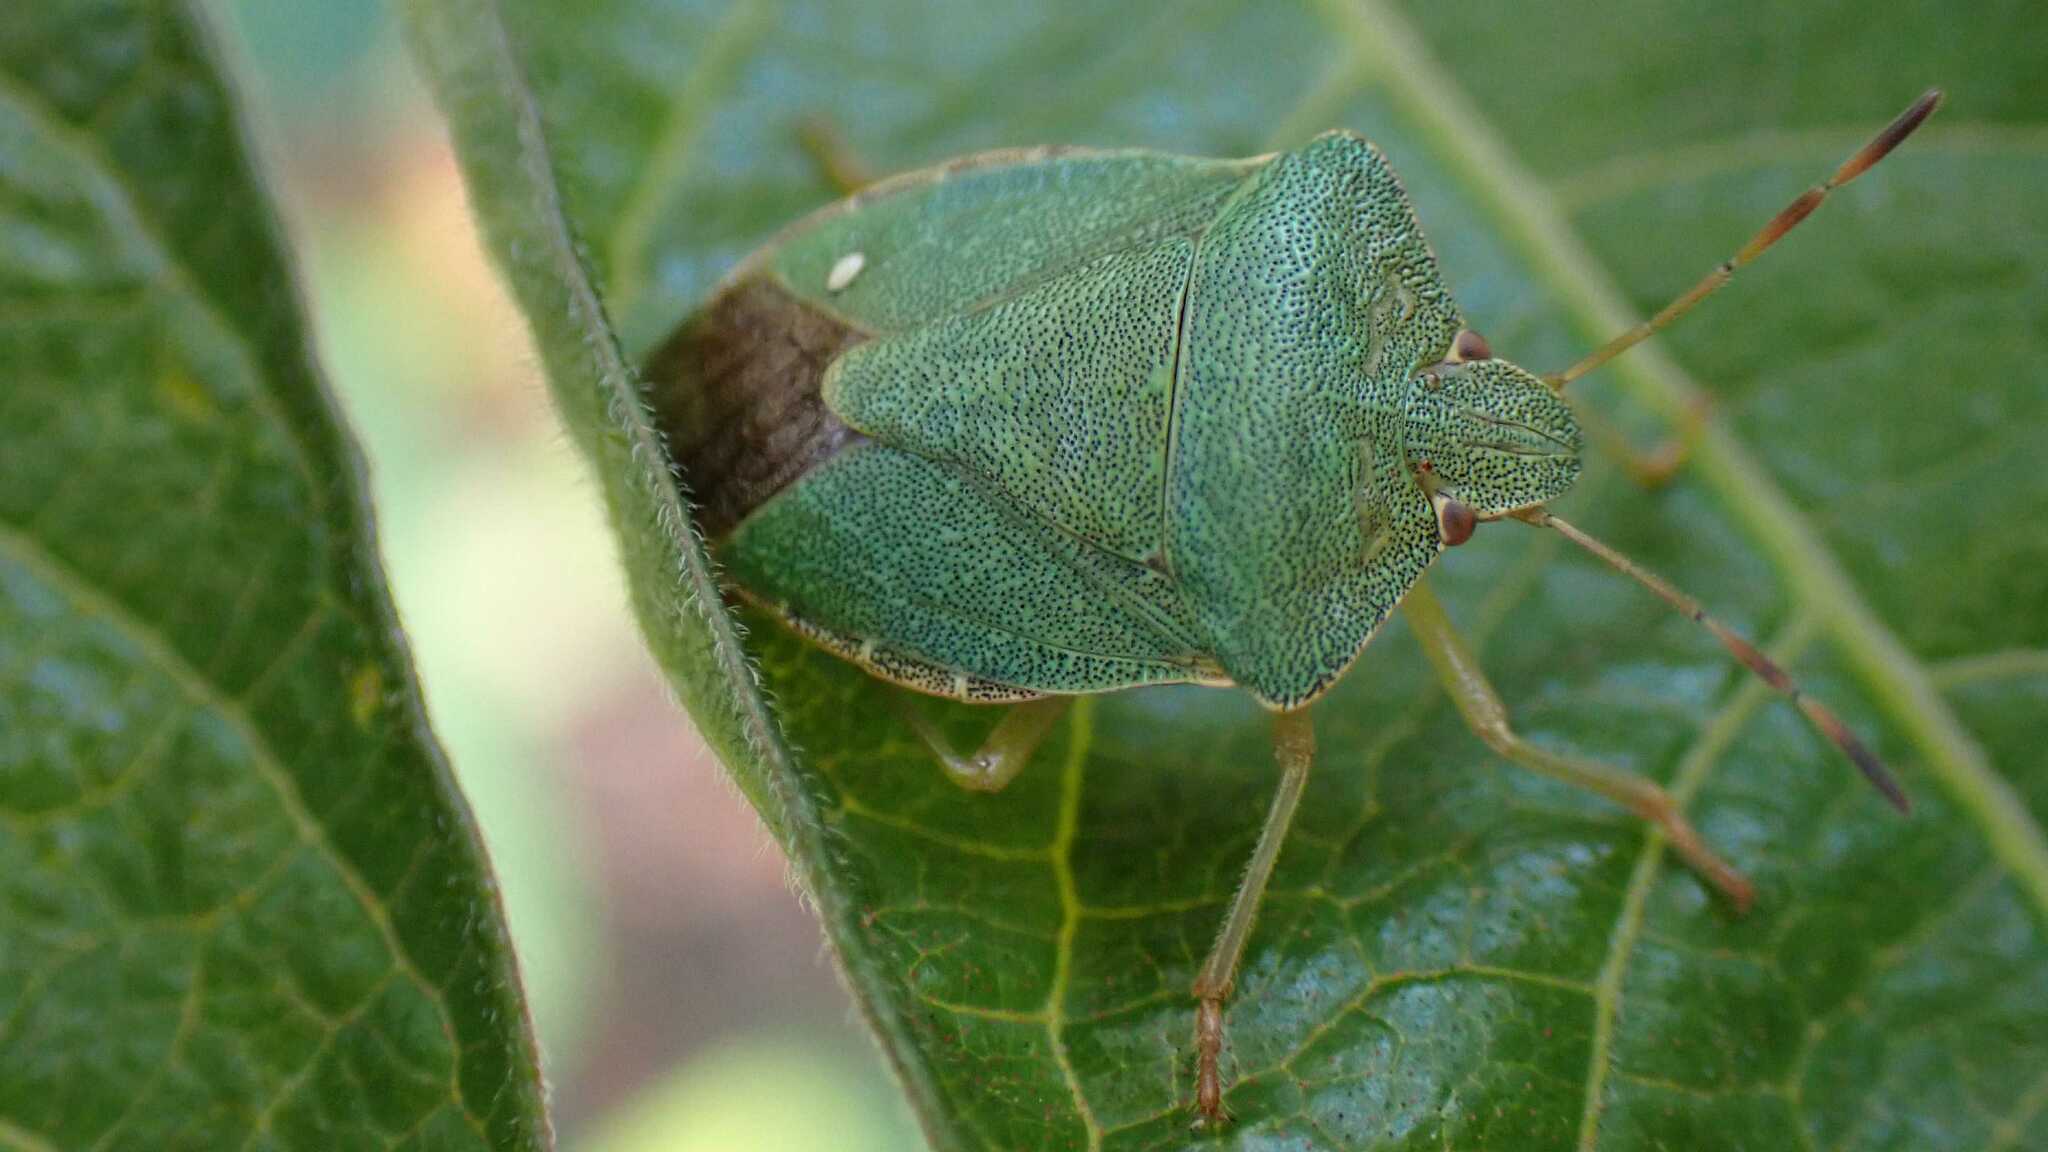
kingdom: Animalia
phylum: Arthropoda
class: Insecta
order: Hemiptera
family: Pentatomidae
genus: Palomena
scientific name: Palomena prasina
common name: Green shieldbug
